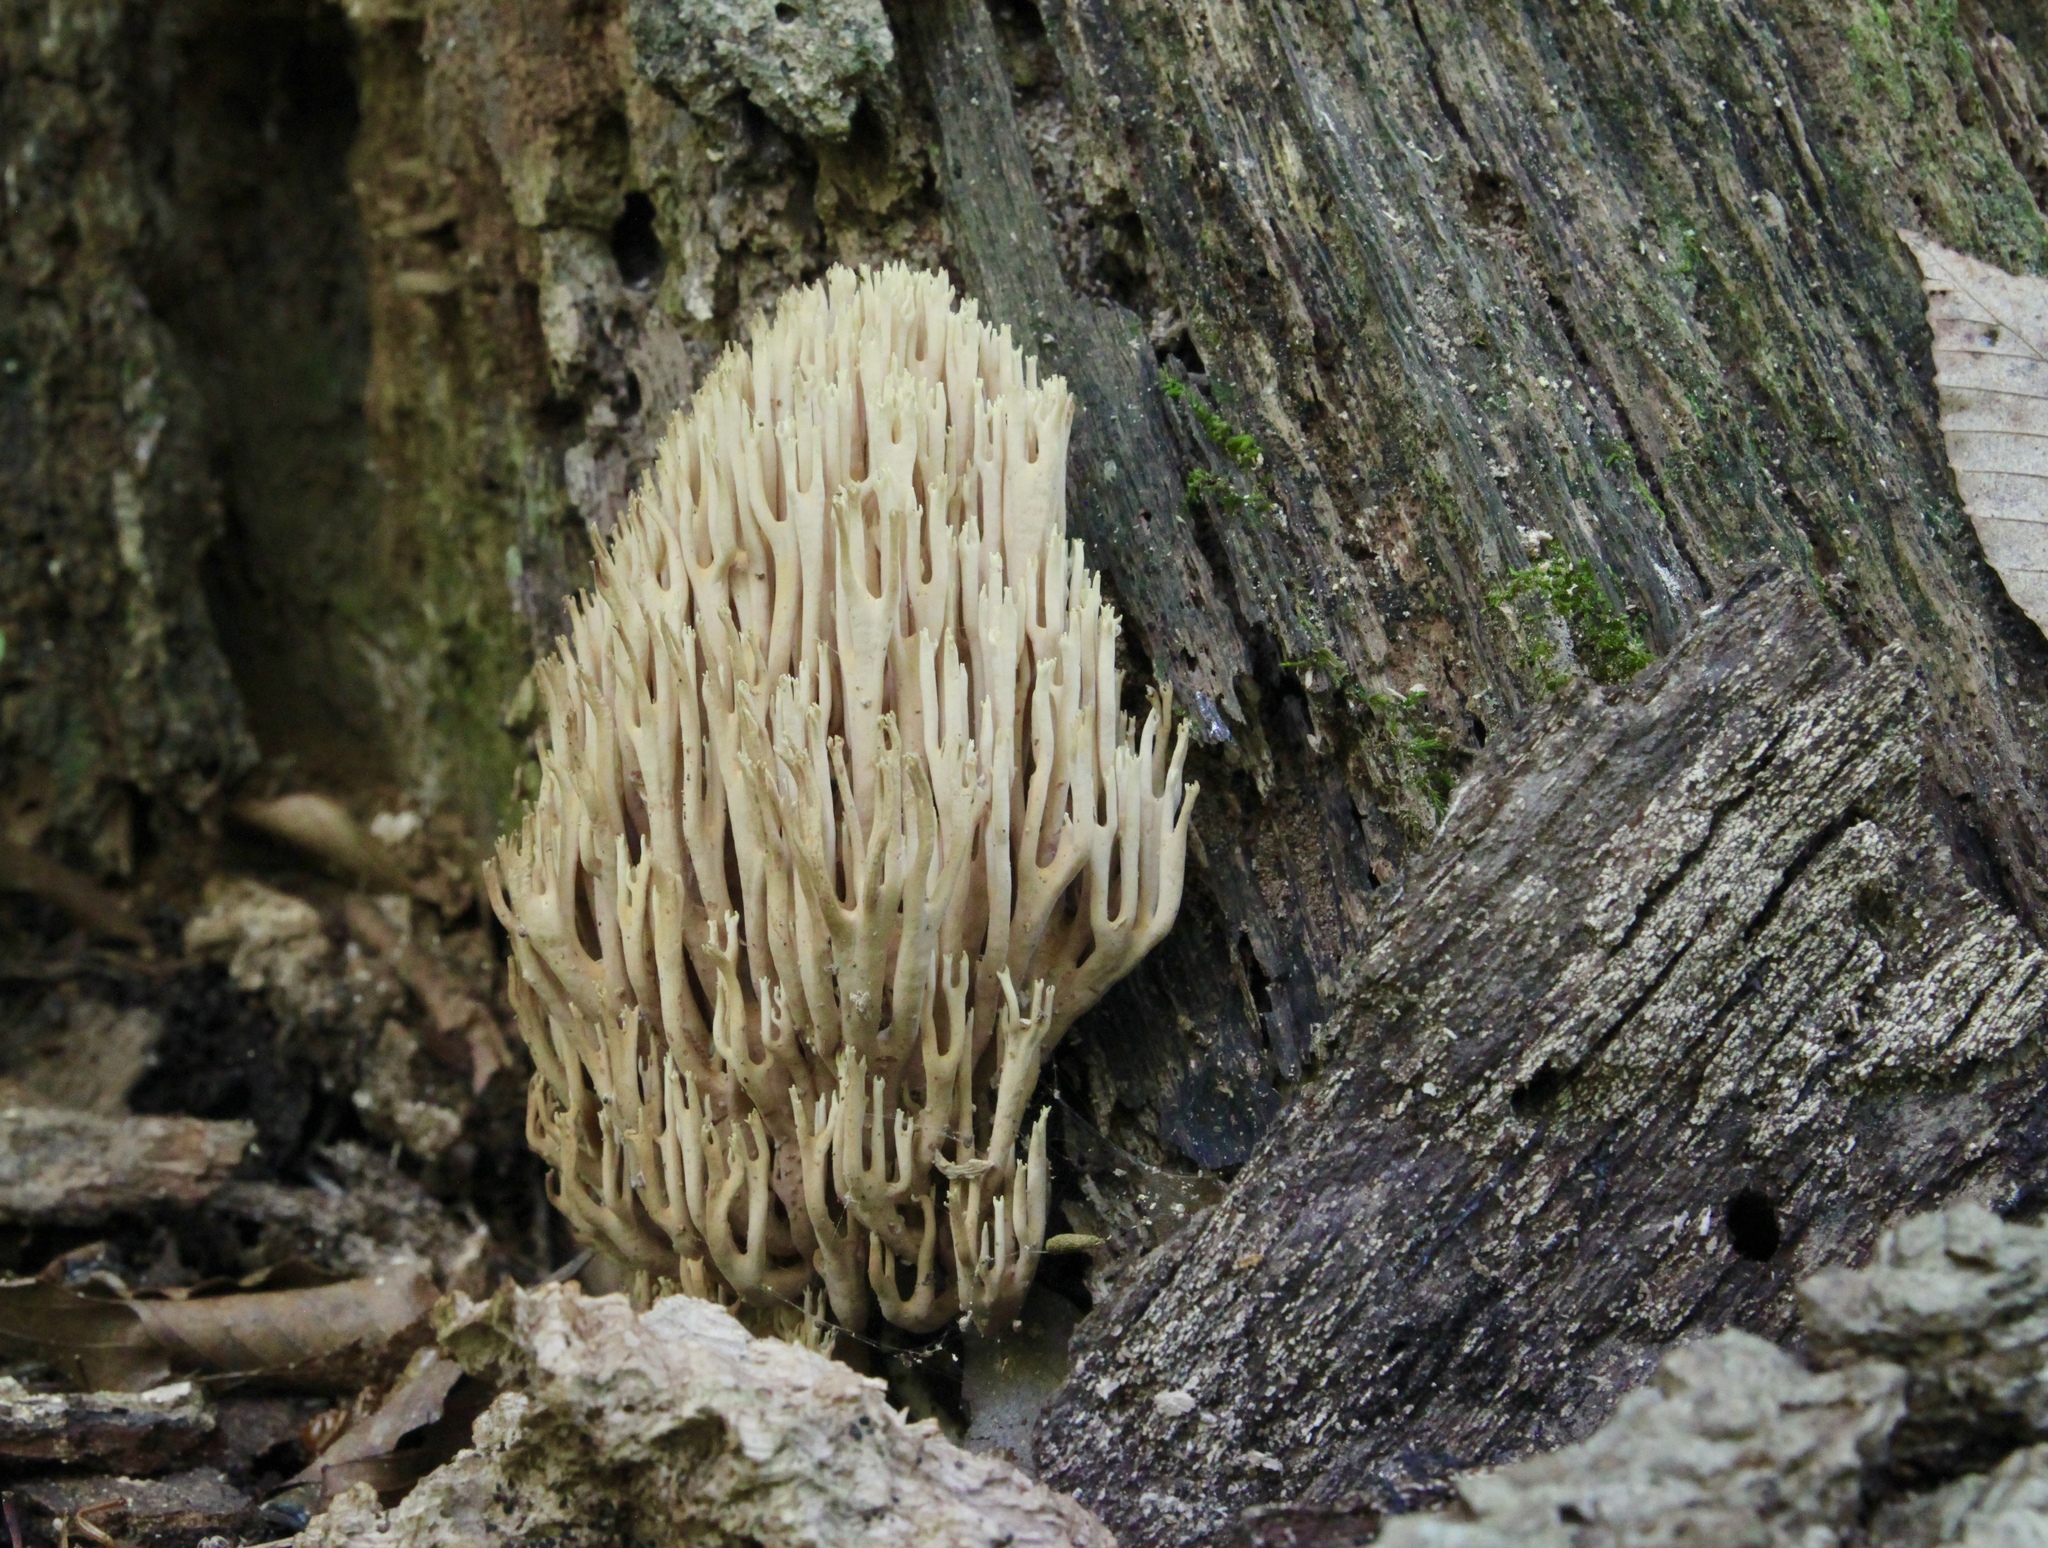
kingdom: Fungi
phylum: Basidiomycota
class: Agaricomycetes
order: Gomphales
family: Gomphaceae
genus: Ramaria
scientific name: Ramaria stricta
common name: Upright coral
